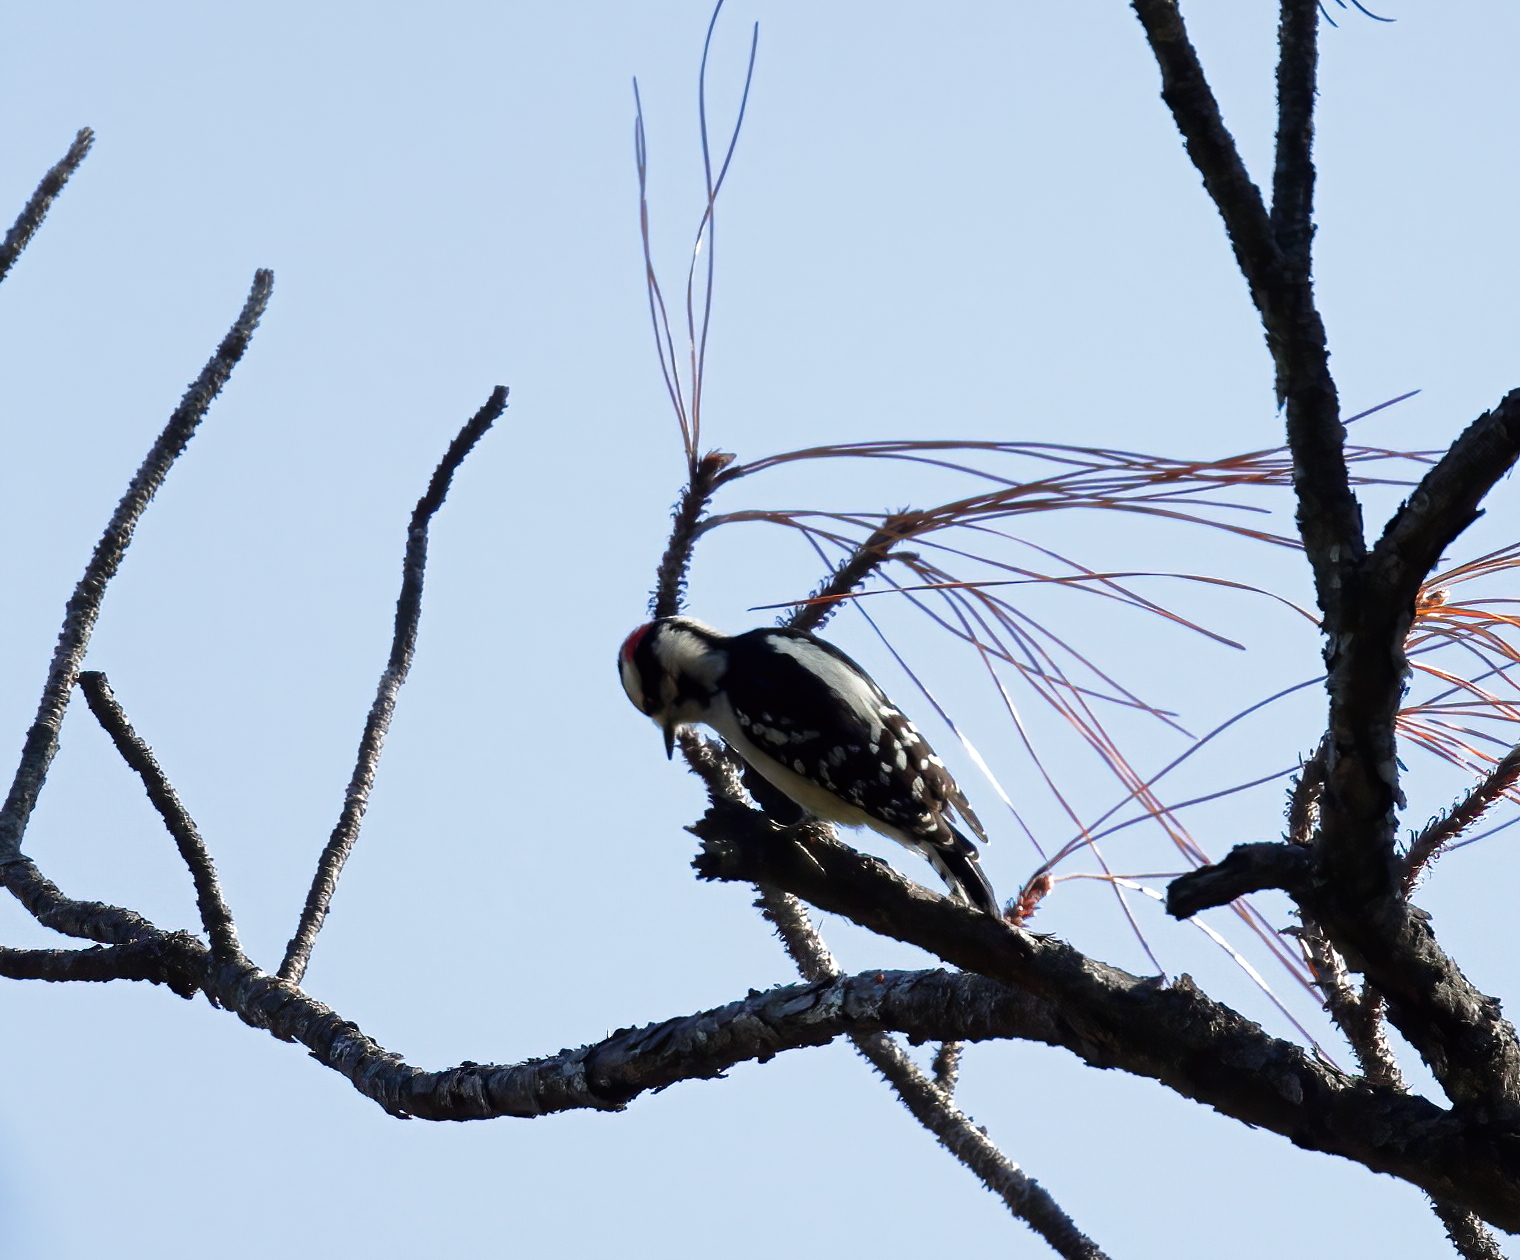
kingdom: Animalia
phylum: Chordata
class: Aves
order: Piciformes
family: Picidae
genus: Dryobates
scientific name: Dryobates pubescens
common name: Downy woodpecker
